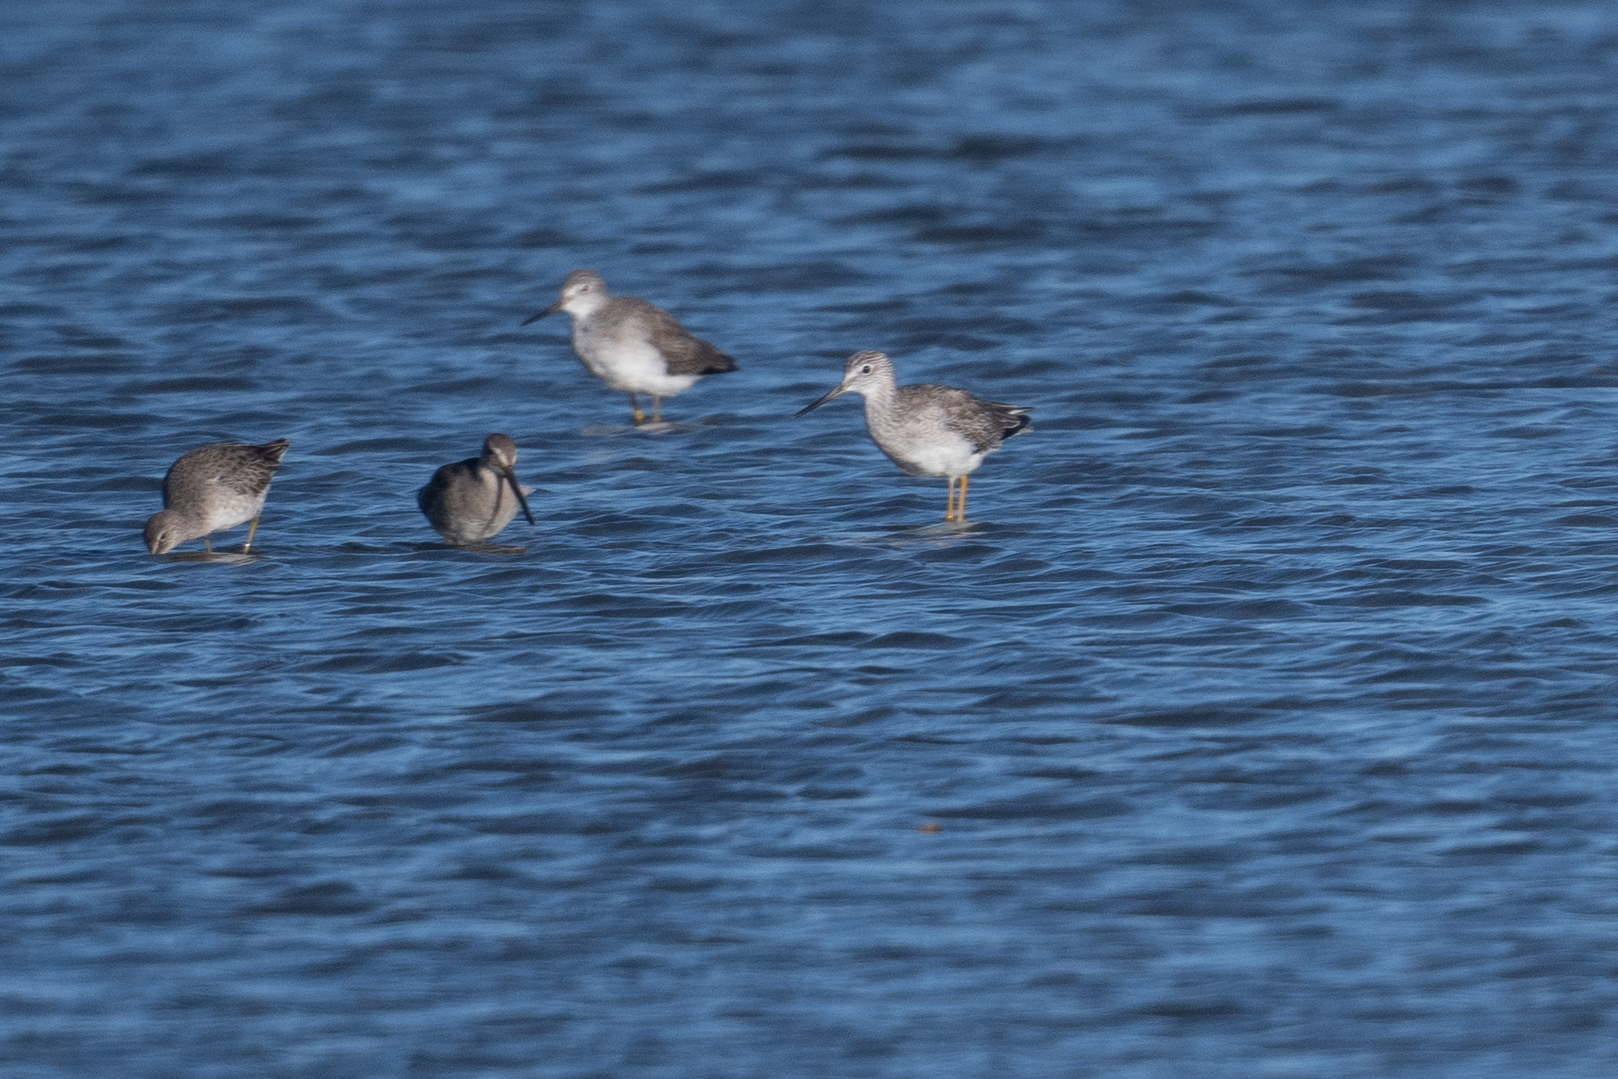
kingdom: Animalia
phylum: Chordata
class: Aves
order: Charadriiformes
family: Scolopacidae
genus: Tringa
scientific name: Tringa melanoleuca
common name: Greater yellowlegs
